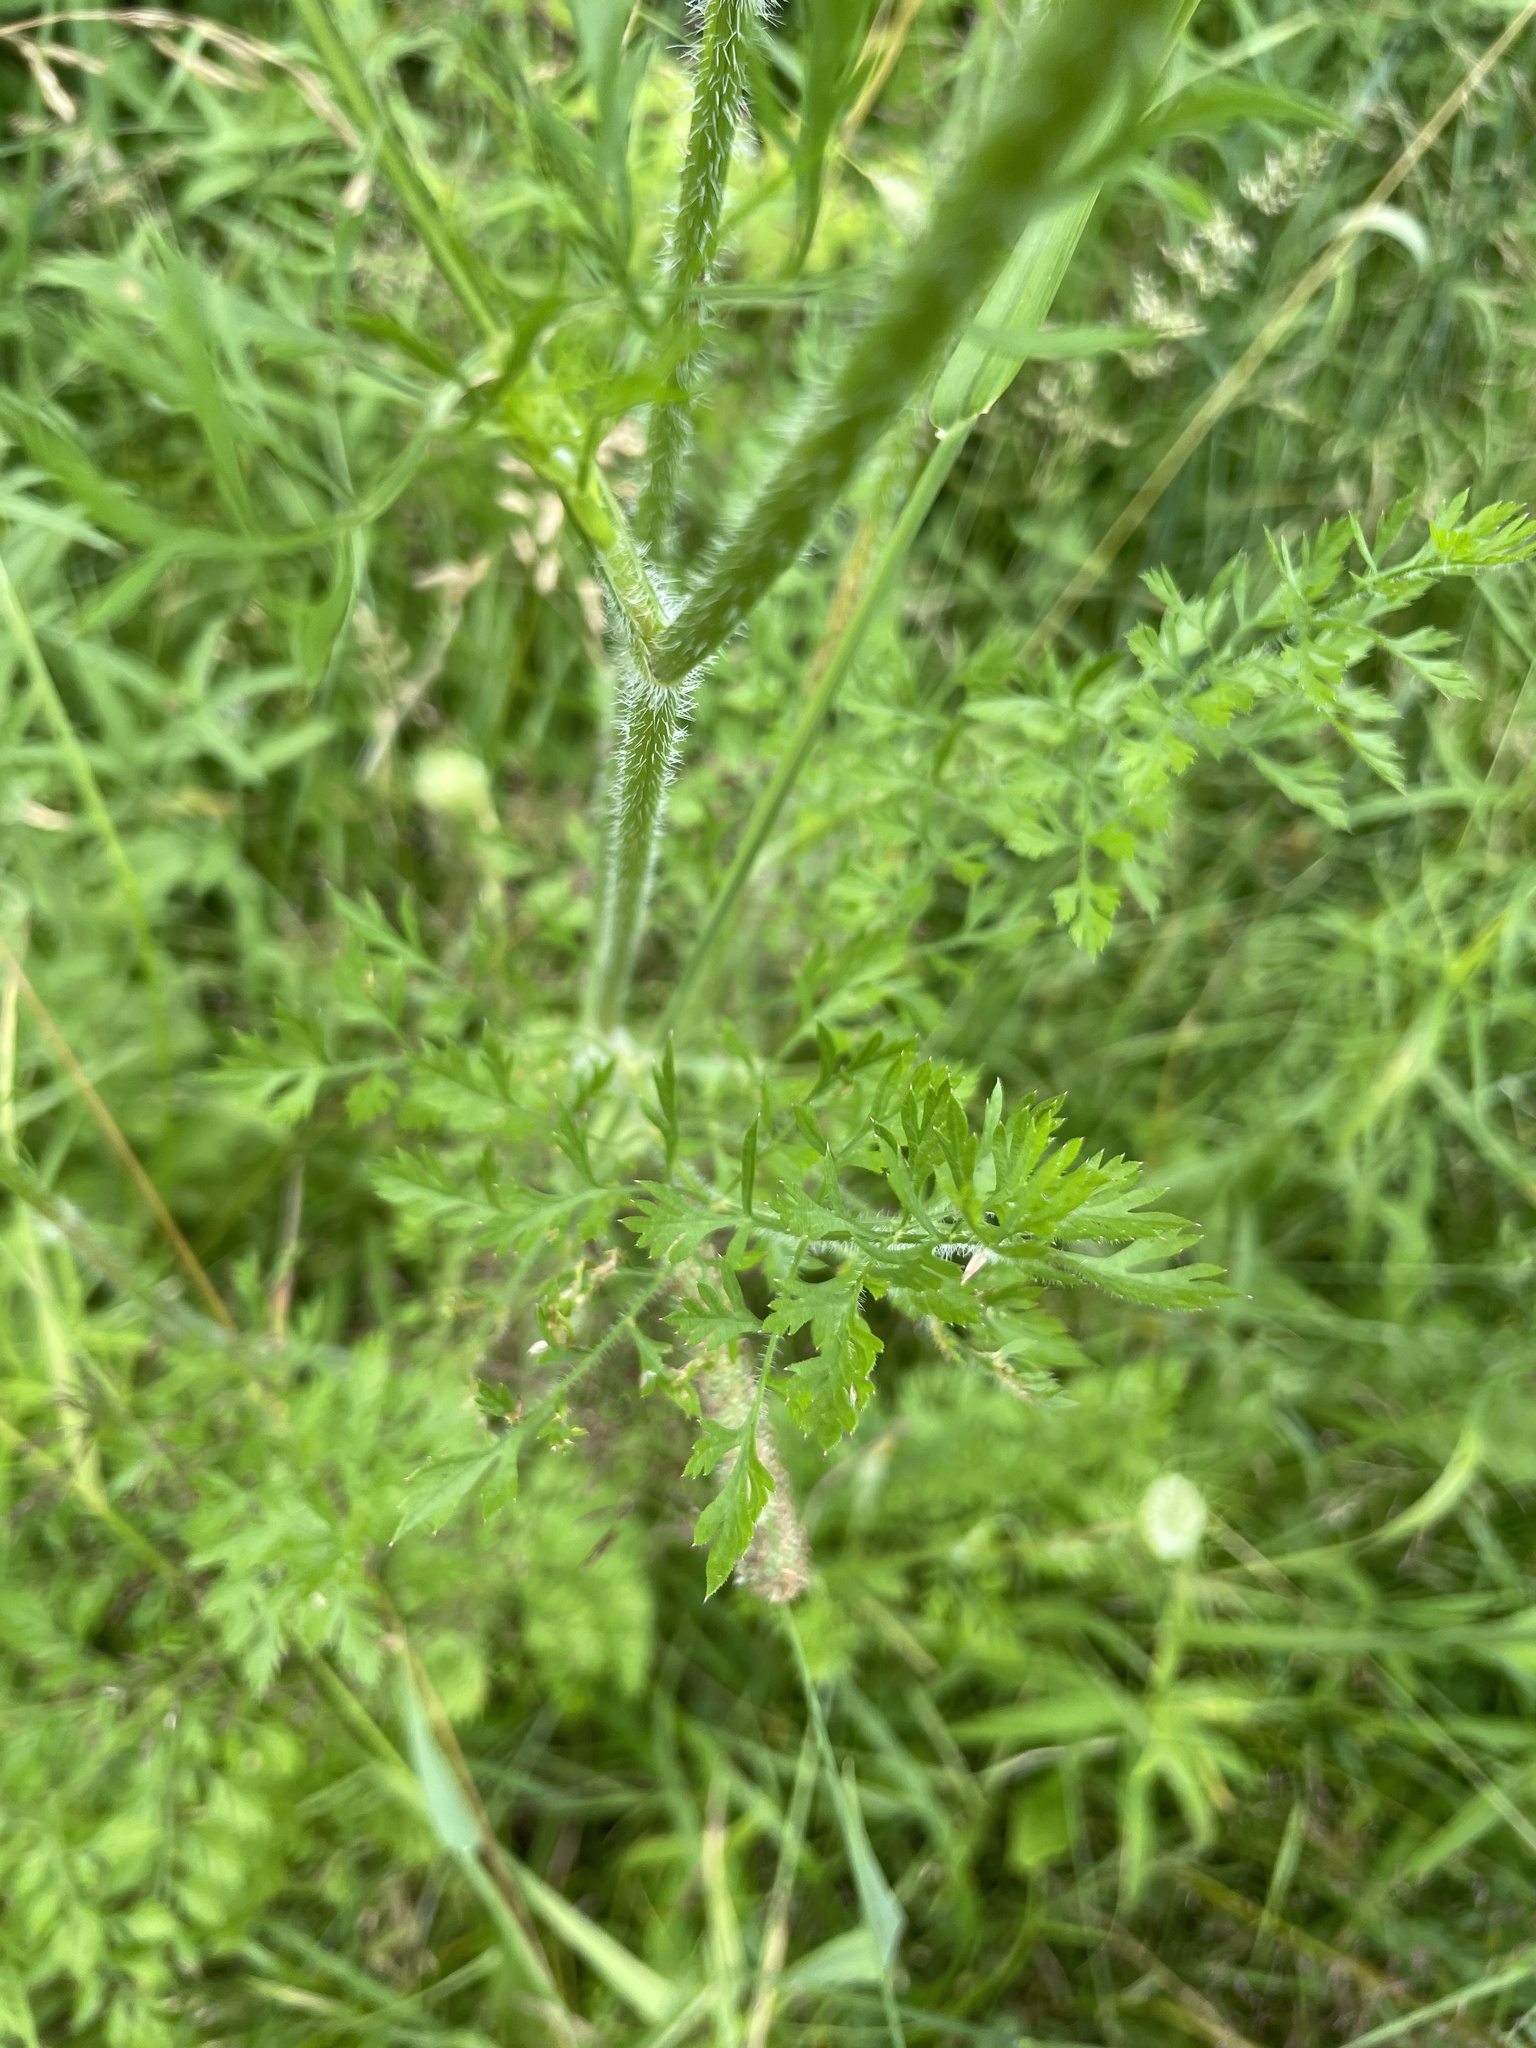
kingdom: Plantae
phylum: Tracheophyta
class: Magnoliopsida
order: Apiales
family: Apiaceae
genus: Daucus
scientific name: Daucus carota
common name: Wild carrot
